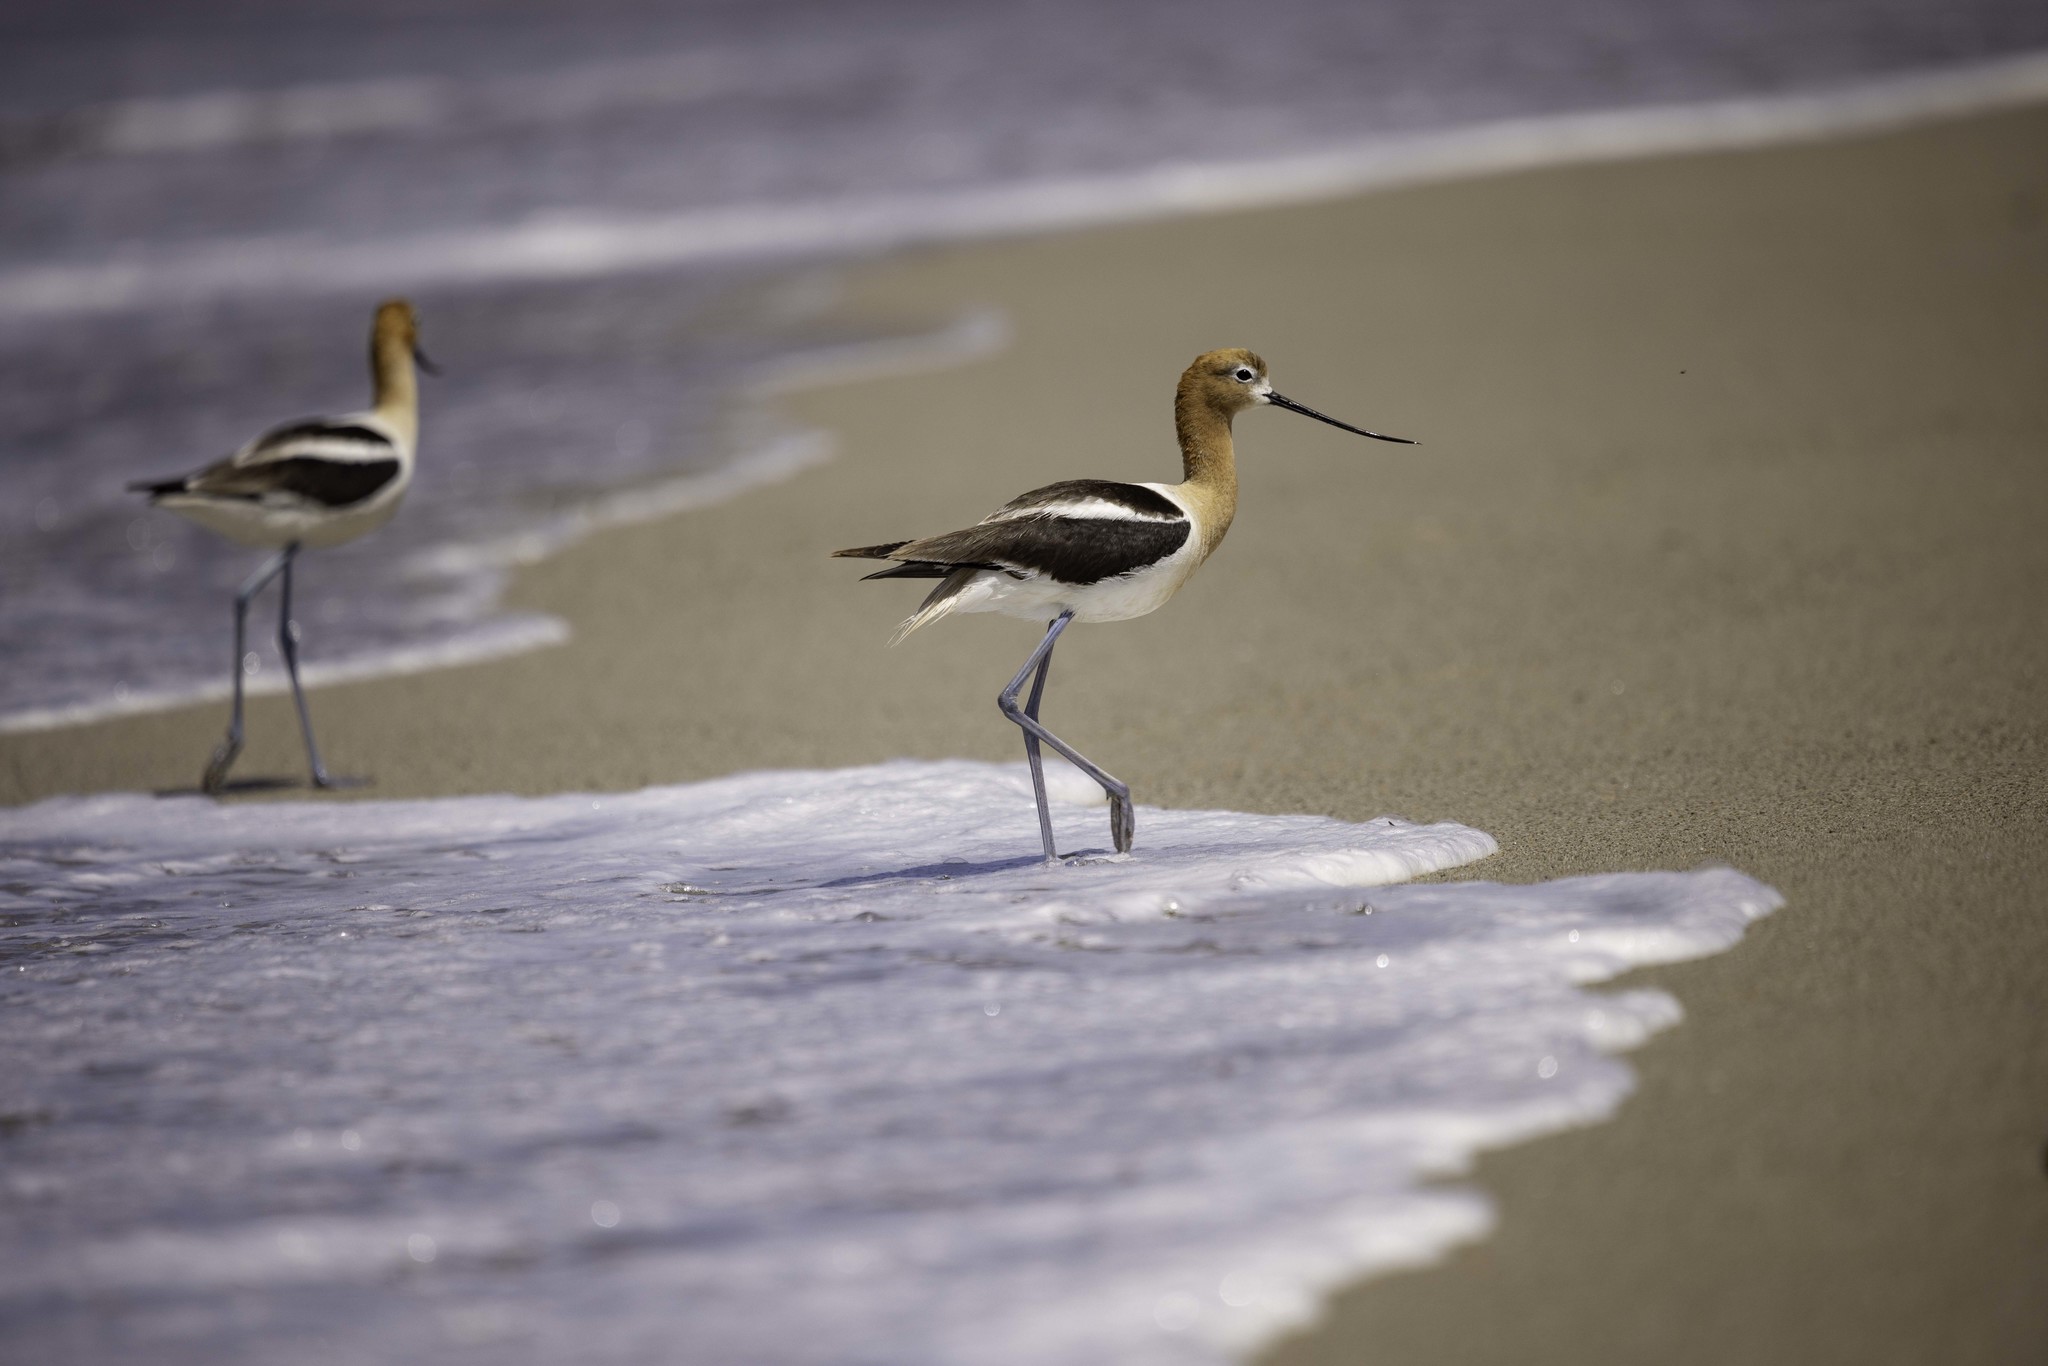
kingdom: Animalia
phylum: Chordata
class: Aves
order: Charadriiformes
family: Recurvirostridae
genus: Recurvirostra
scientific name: Recurvirostra americana
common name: American avocet
